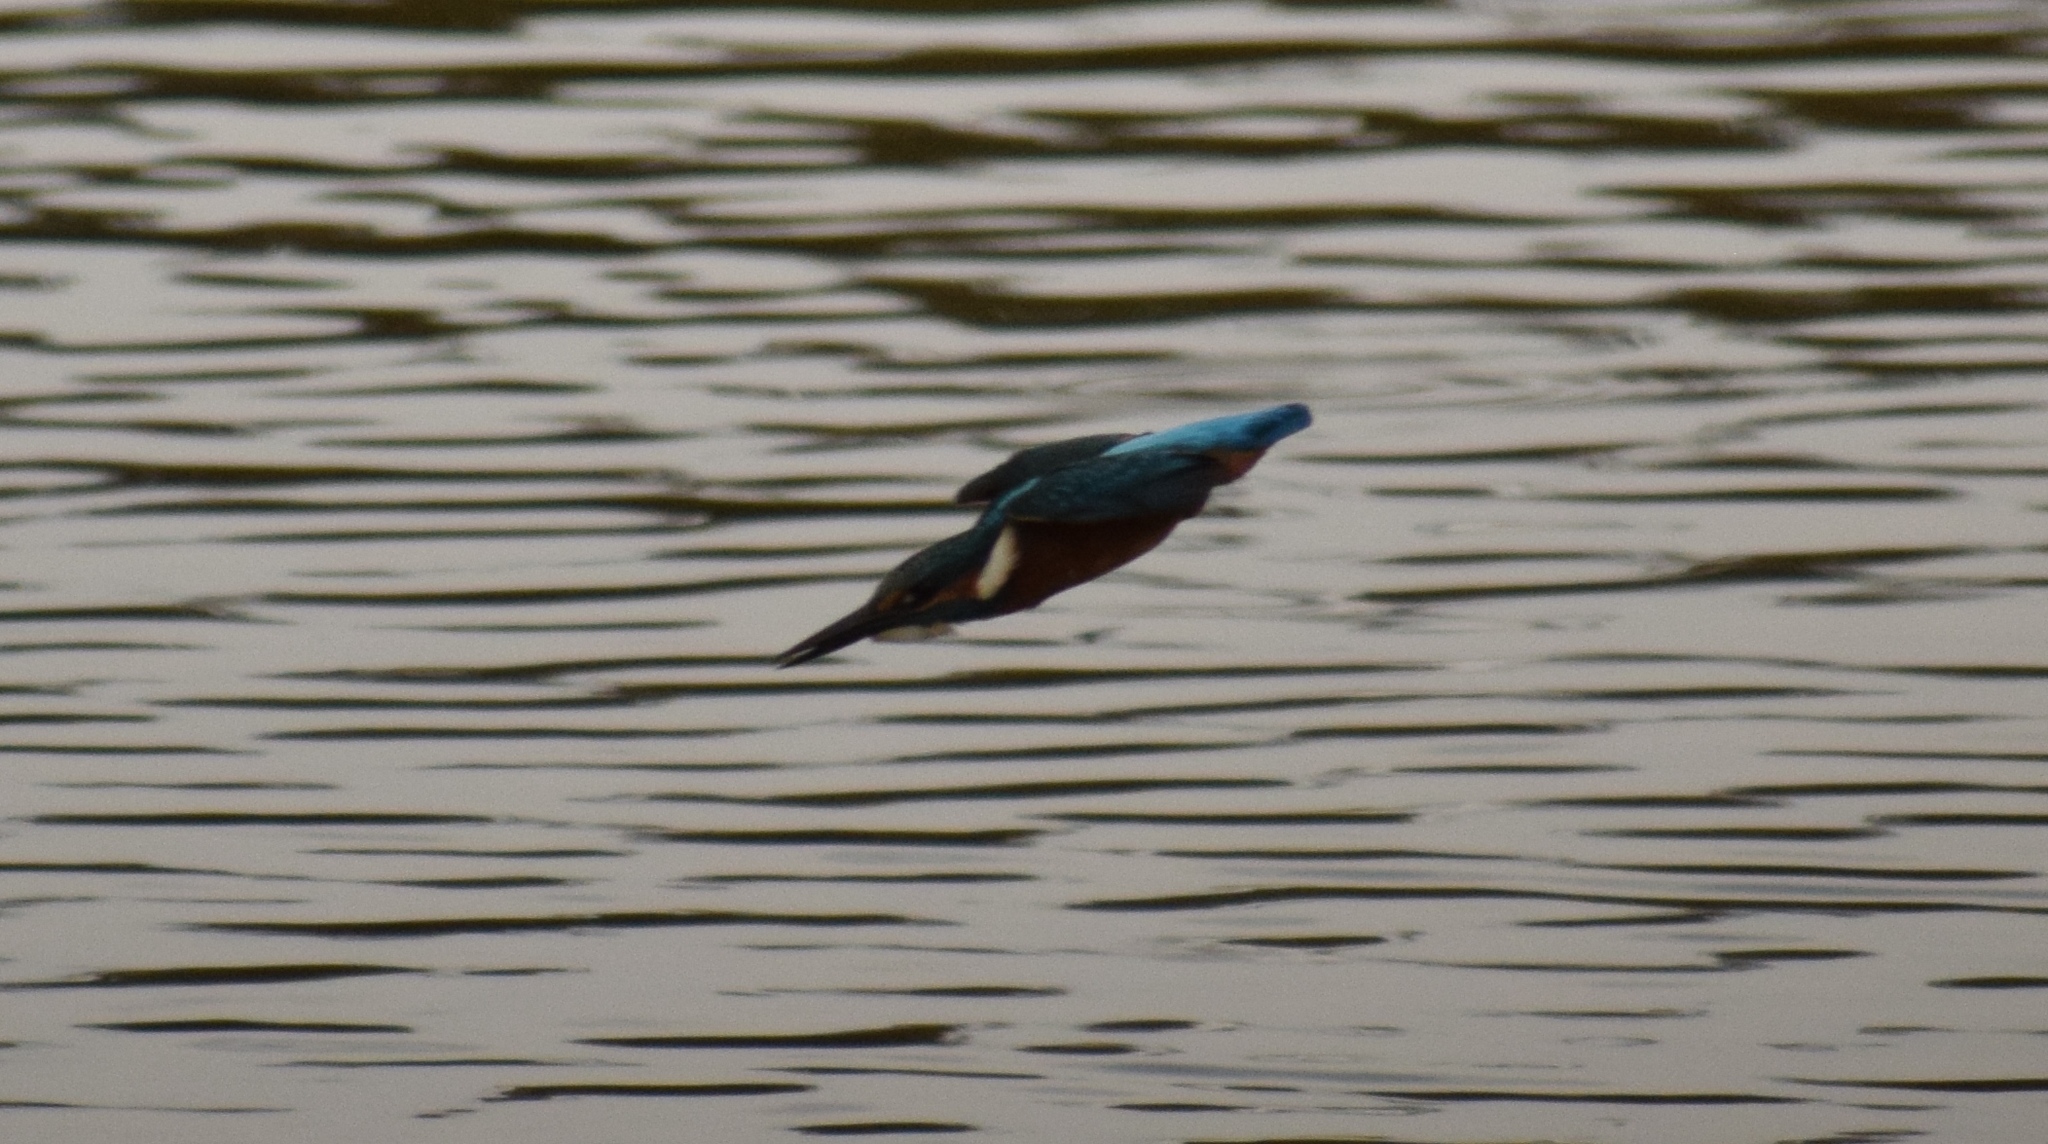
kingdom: Animalia
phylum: Chordata
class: Aves
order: Coraciiformes
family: Alcedinidae
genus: Alcedo
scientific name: Alcedo atthis
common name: Common kingfisher
